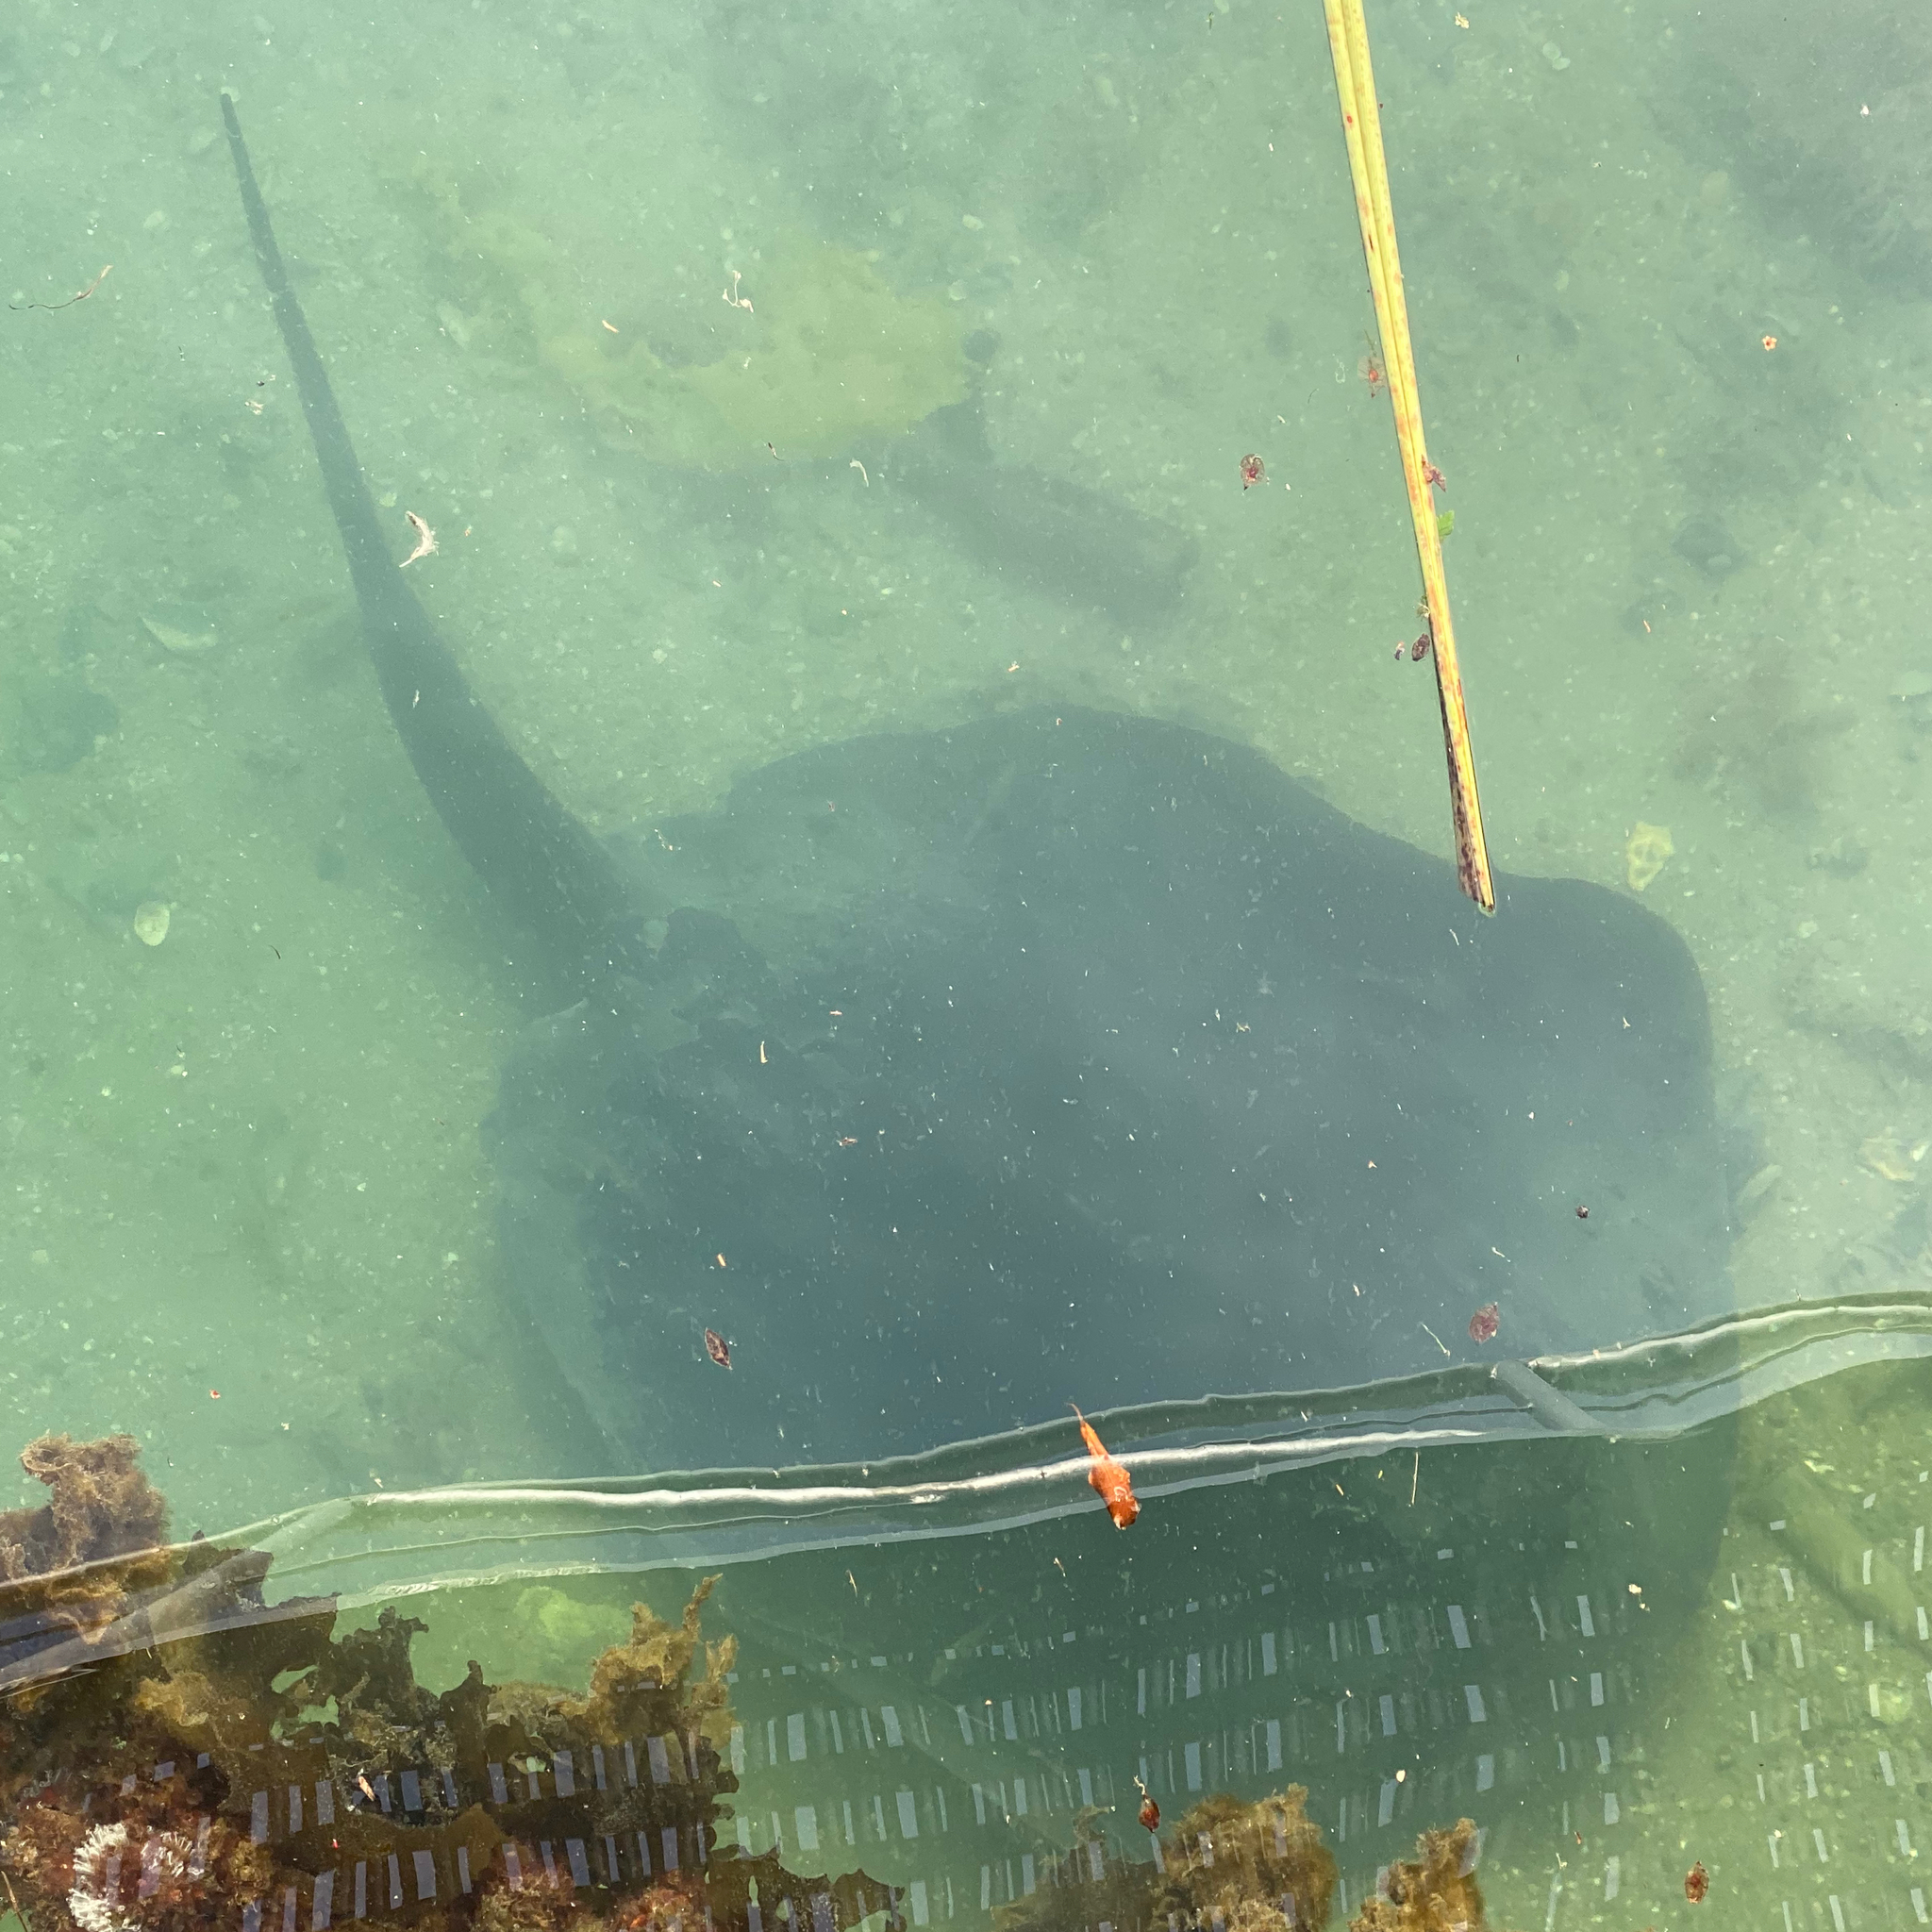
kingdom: Animalia
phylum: Chordata
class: Elasmobranchii
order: Myliobatiformes
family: Dasyatidae
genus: Bathytoshia
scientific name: Bathytoshia brevicaudata
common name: Short-tail stingray
